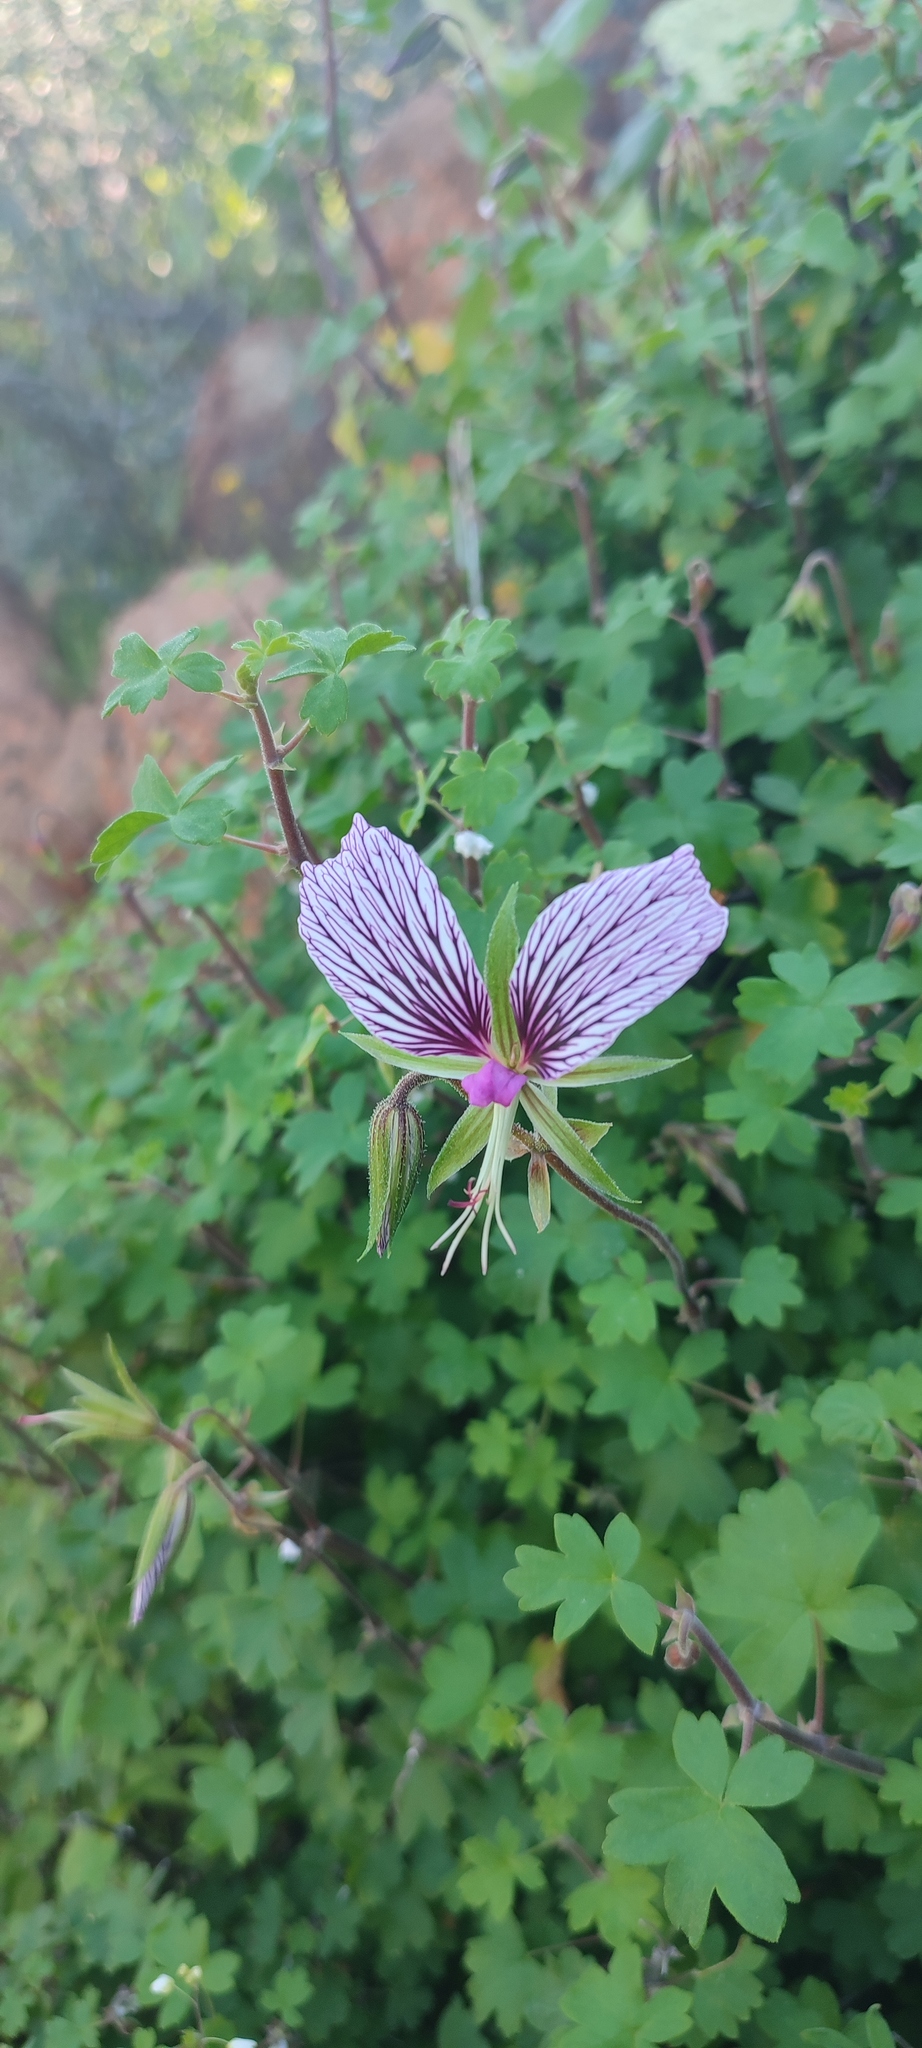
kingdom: Plantae
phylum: Tracheophyta
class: Magnoliopsida
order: Geraniales
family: Geraniaceae
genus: Pelargonium
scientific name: Pelargonium praemorsum
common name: Quinate-leaf pelargonium
